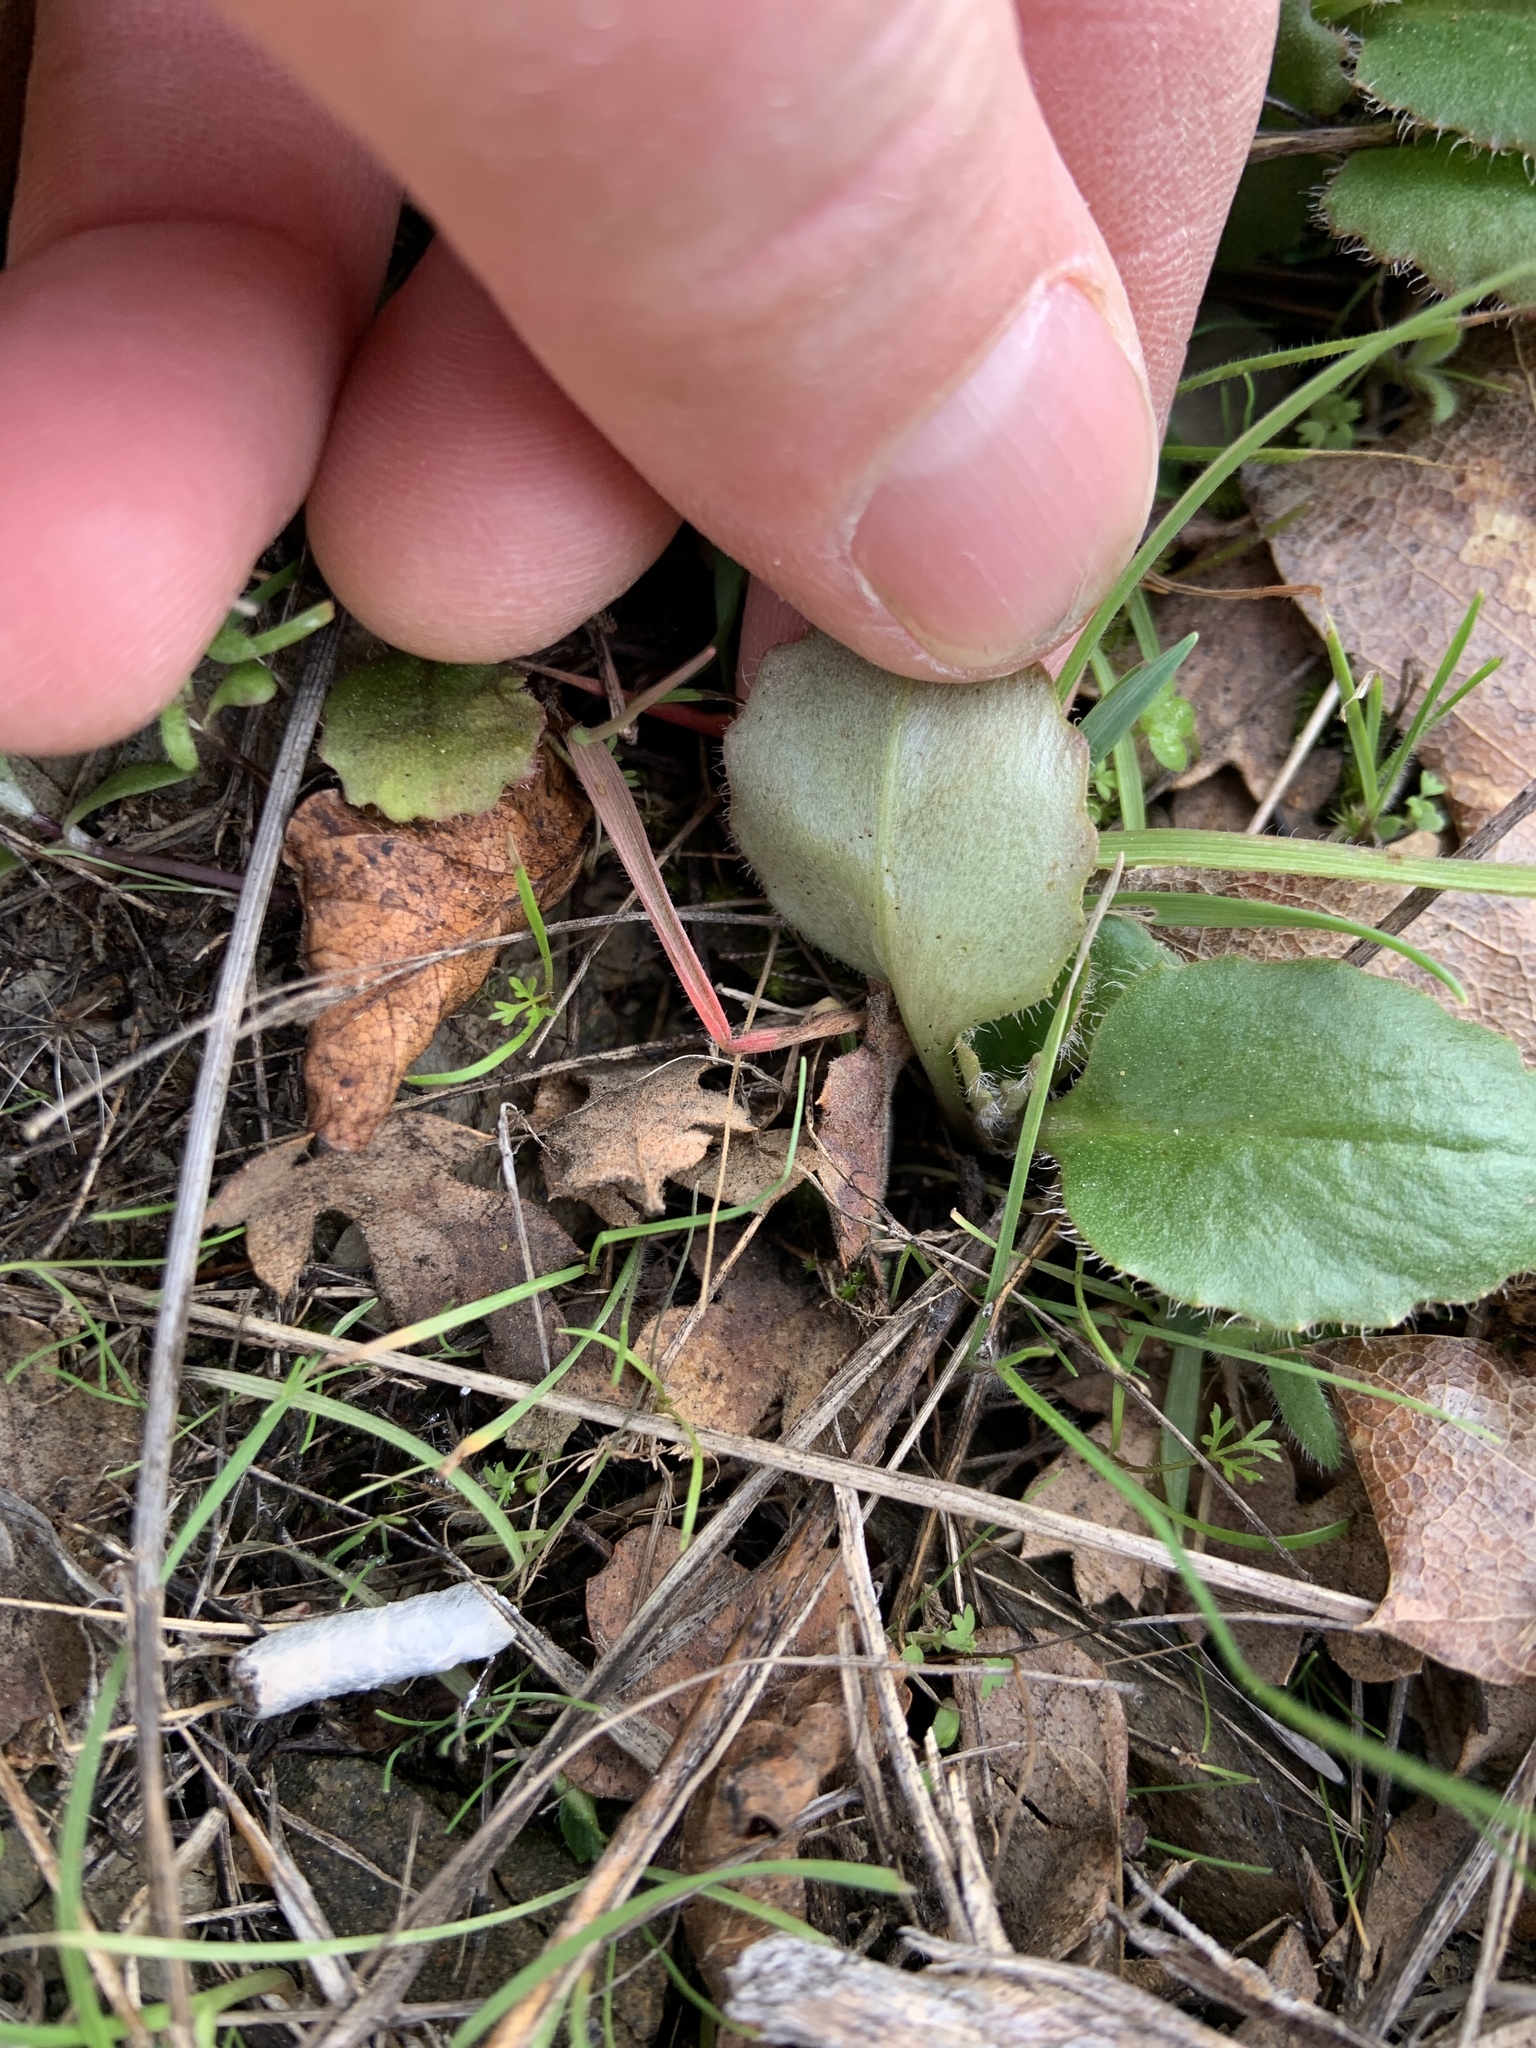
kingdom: Plantae
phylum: Tracheophyta
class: Magnoliopsida
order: Saxifragales
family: Saxifragaceae
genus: Micranthes
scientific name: Micranthes californica
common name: California saxifrage
